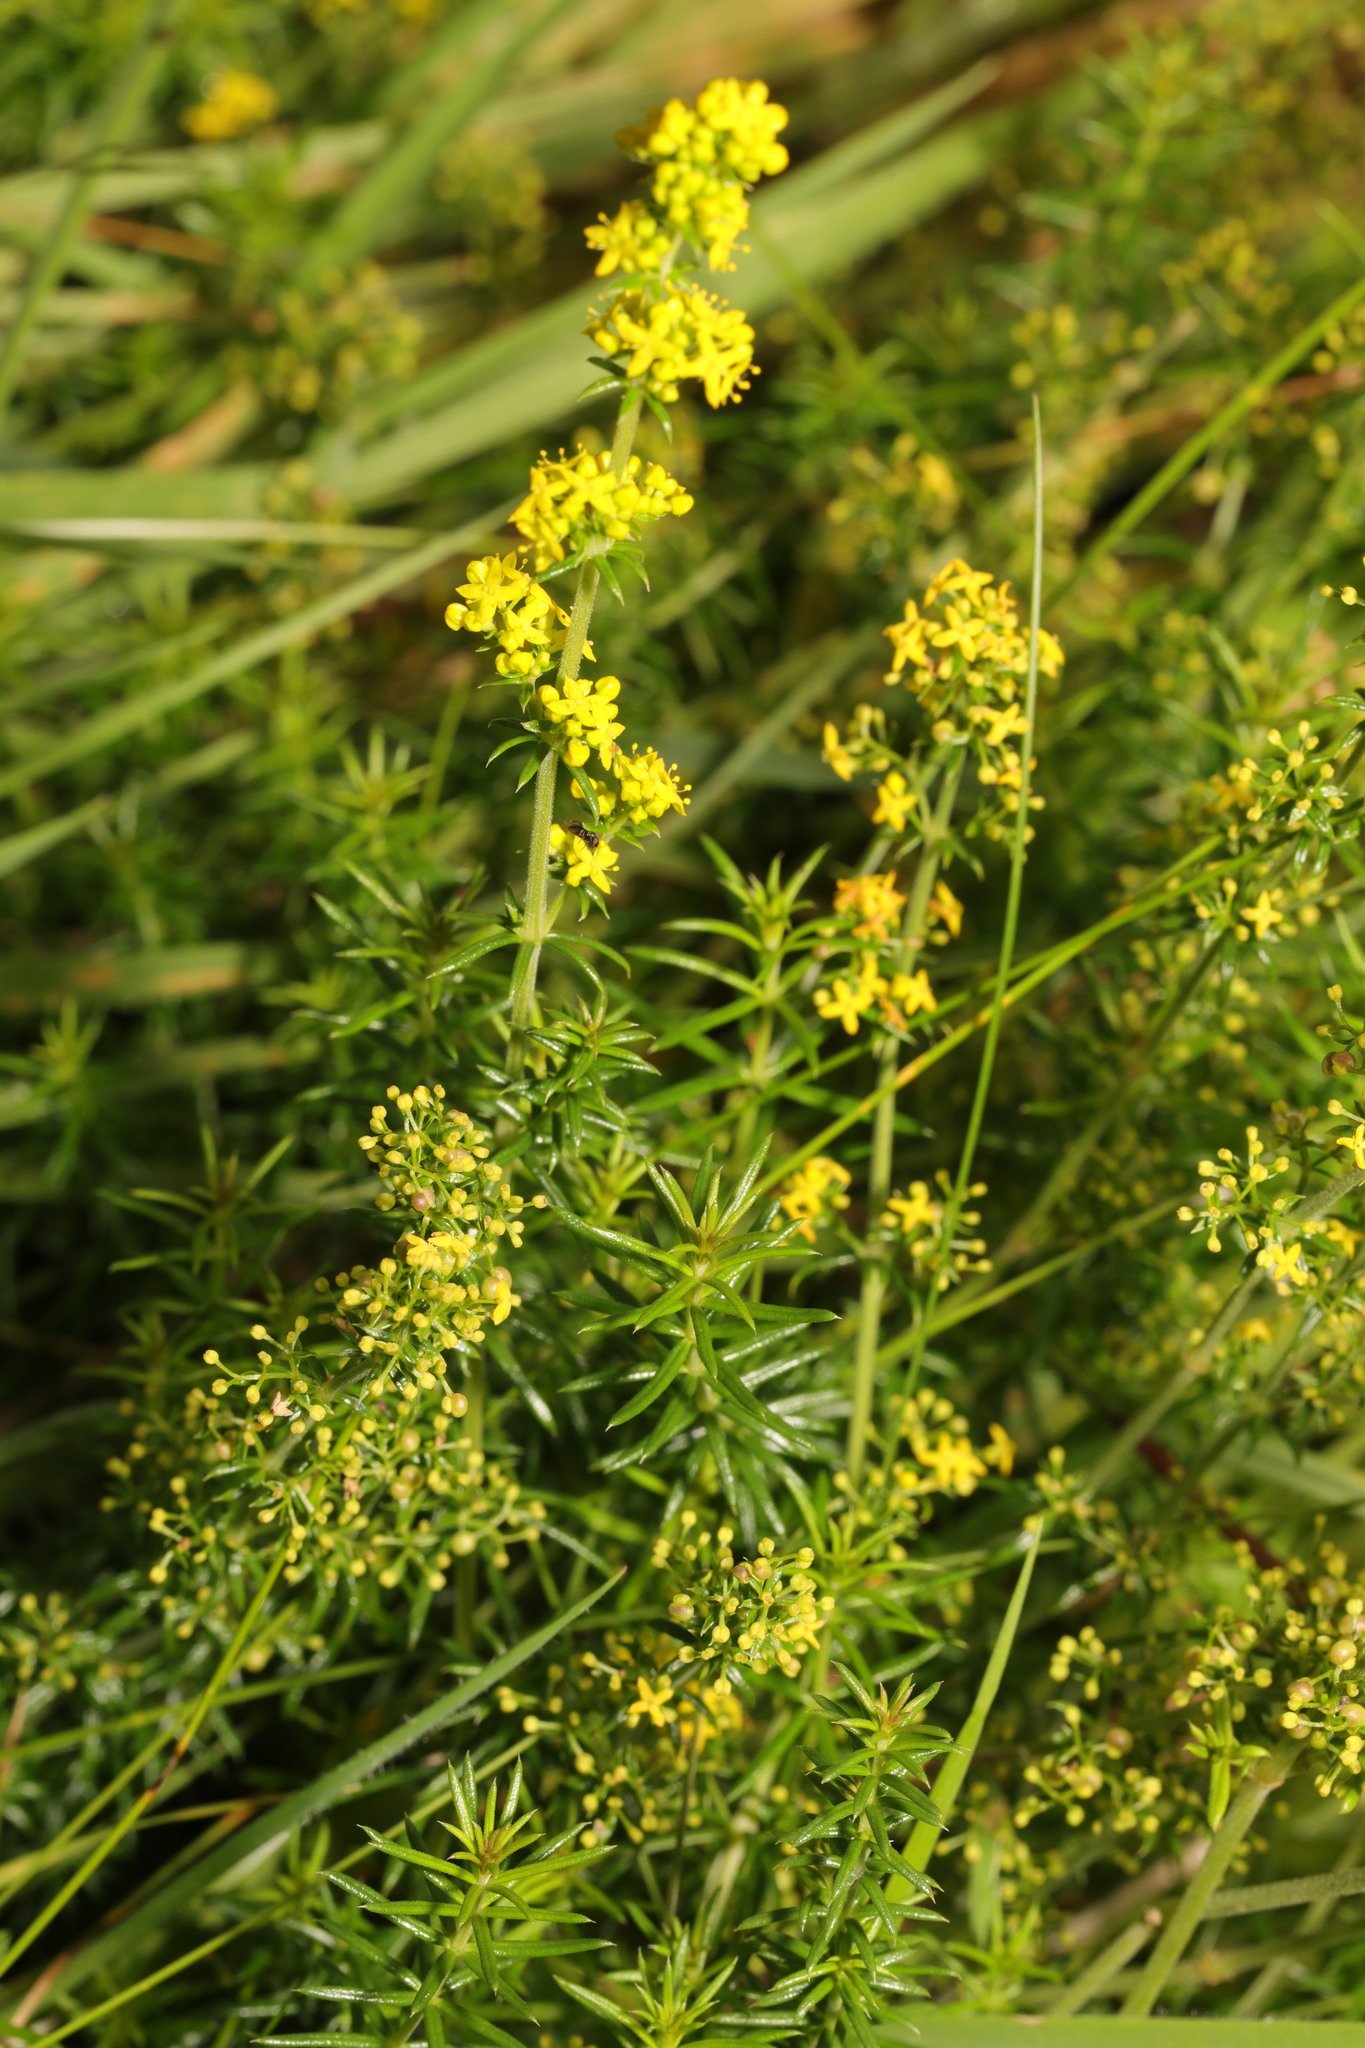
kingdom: Plantae
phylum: Tracheophyta
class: Magnoliopsida
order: Gentianales
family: Rubiaceae
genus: Galium
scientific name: Galium verum
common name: Lady's bedstraw
